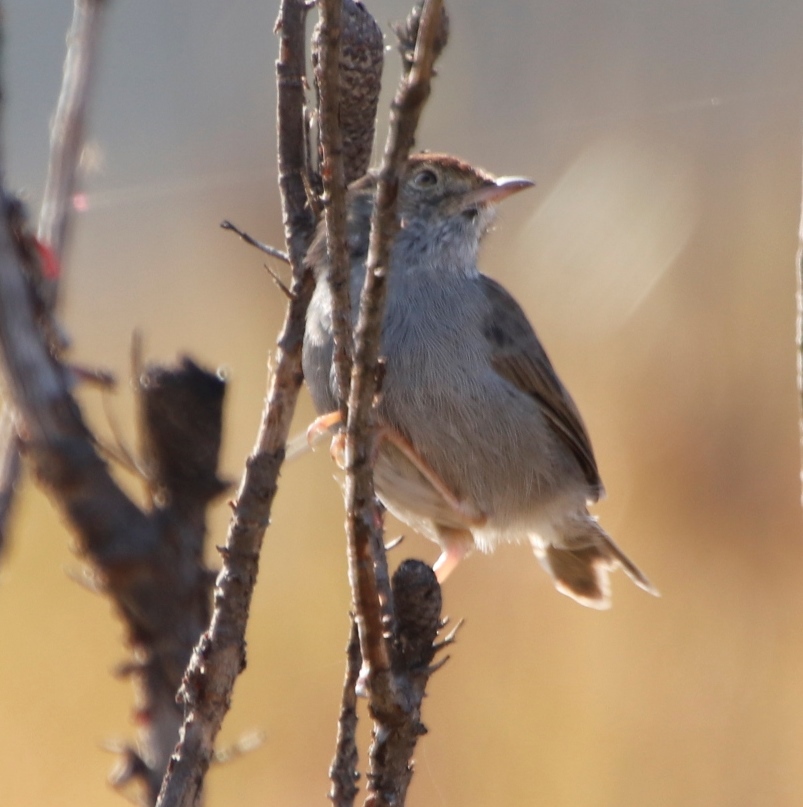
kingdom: Animalia
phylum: Chordata
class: Aves
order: Passeriformes
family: Cisticolidae
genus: Cisticola
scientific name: Cisticola fulvicapilla
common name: Neddicky
